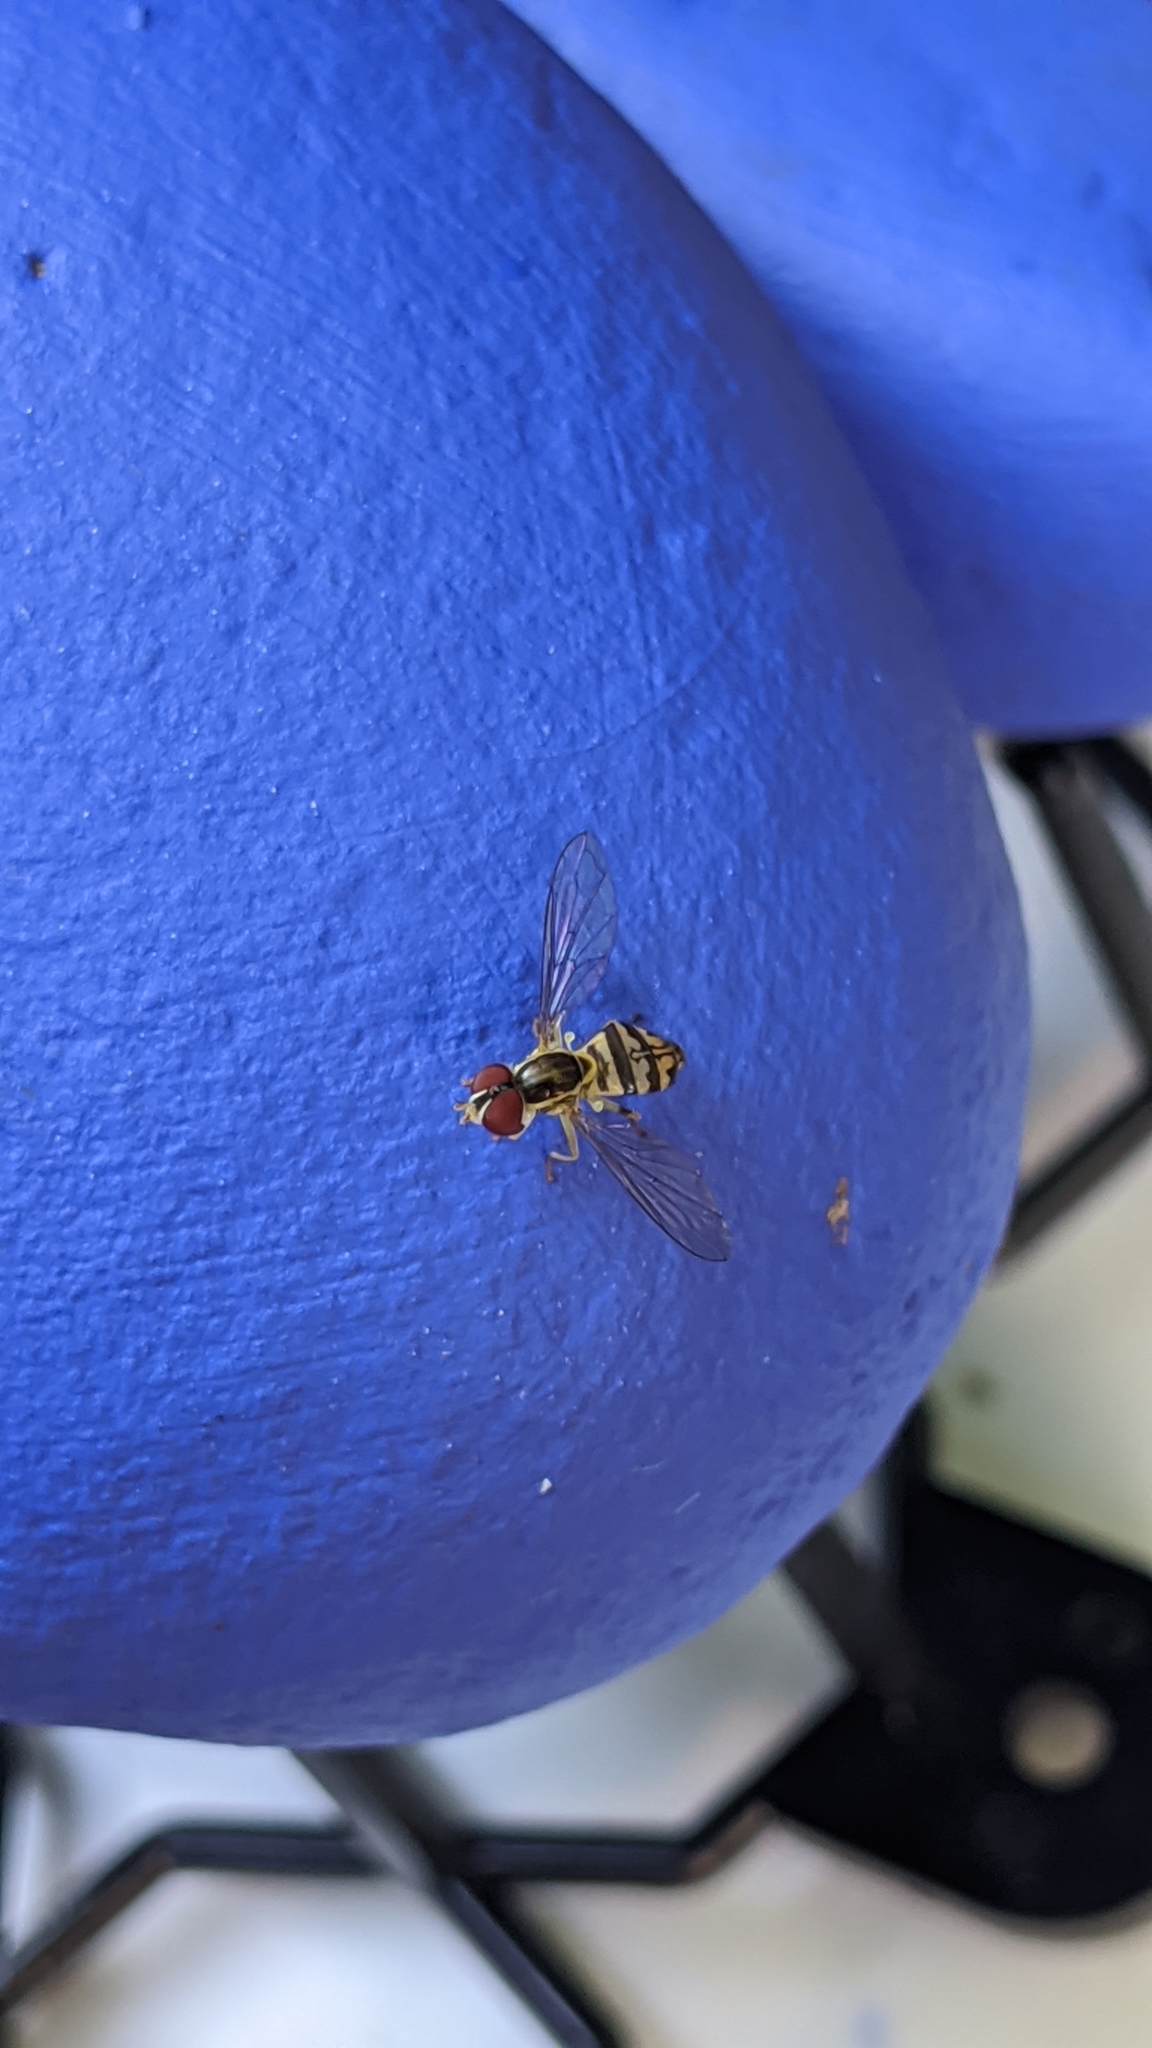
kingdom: Animalia
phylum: Arthropoda
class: Insecta
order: Diptera
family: Syrphidae
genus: Toxomerus
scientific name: Toxomerus geminatus
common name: Eastern calligrapher
